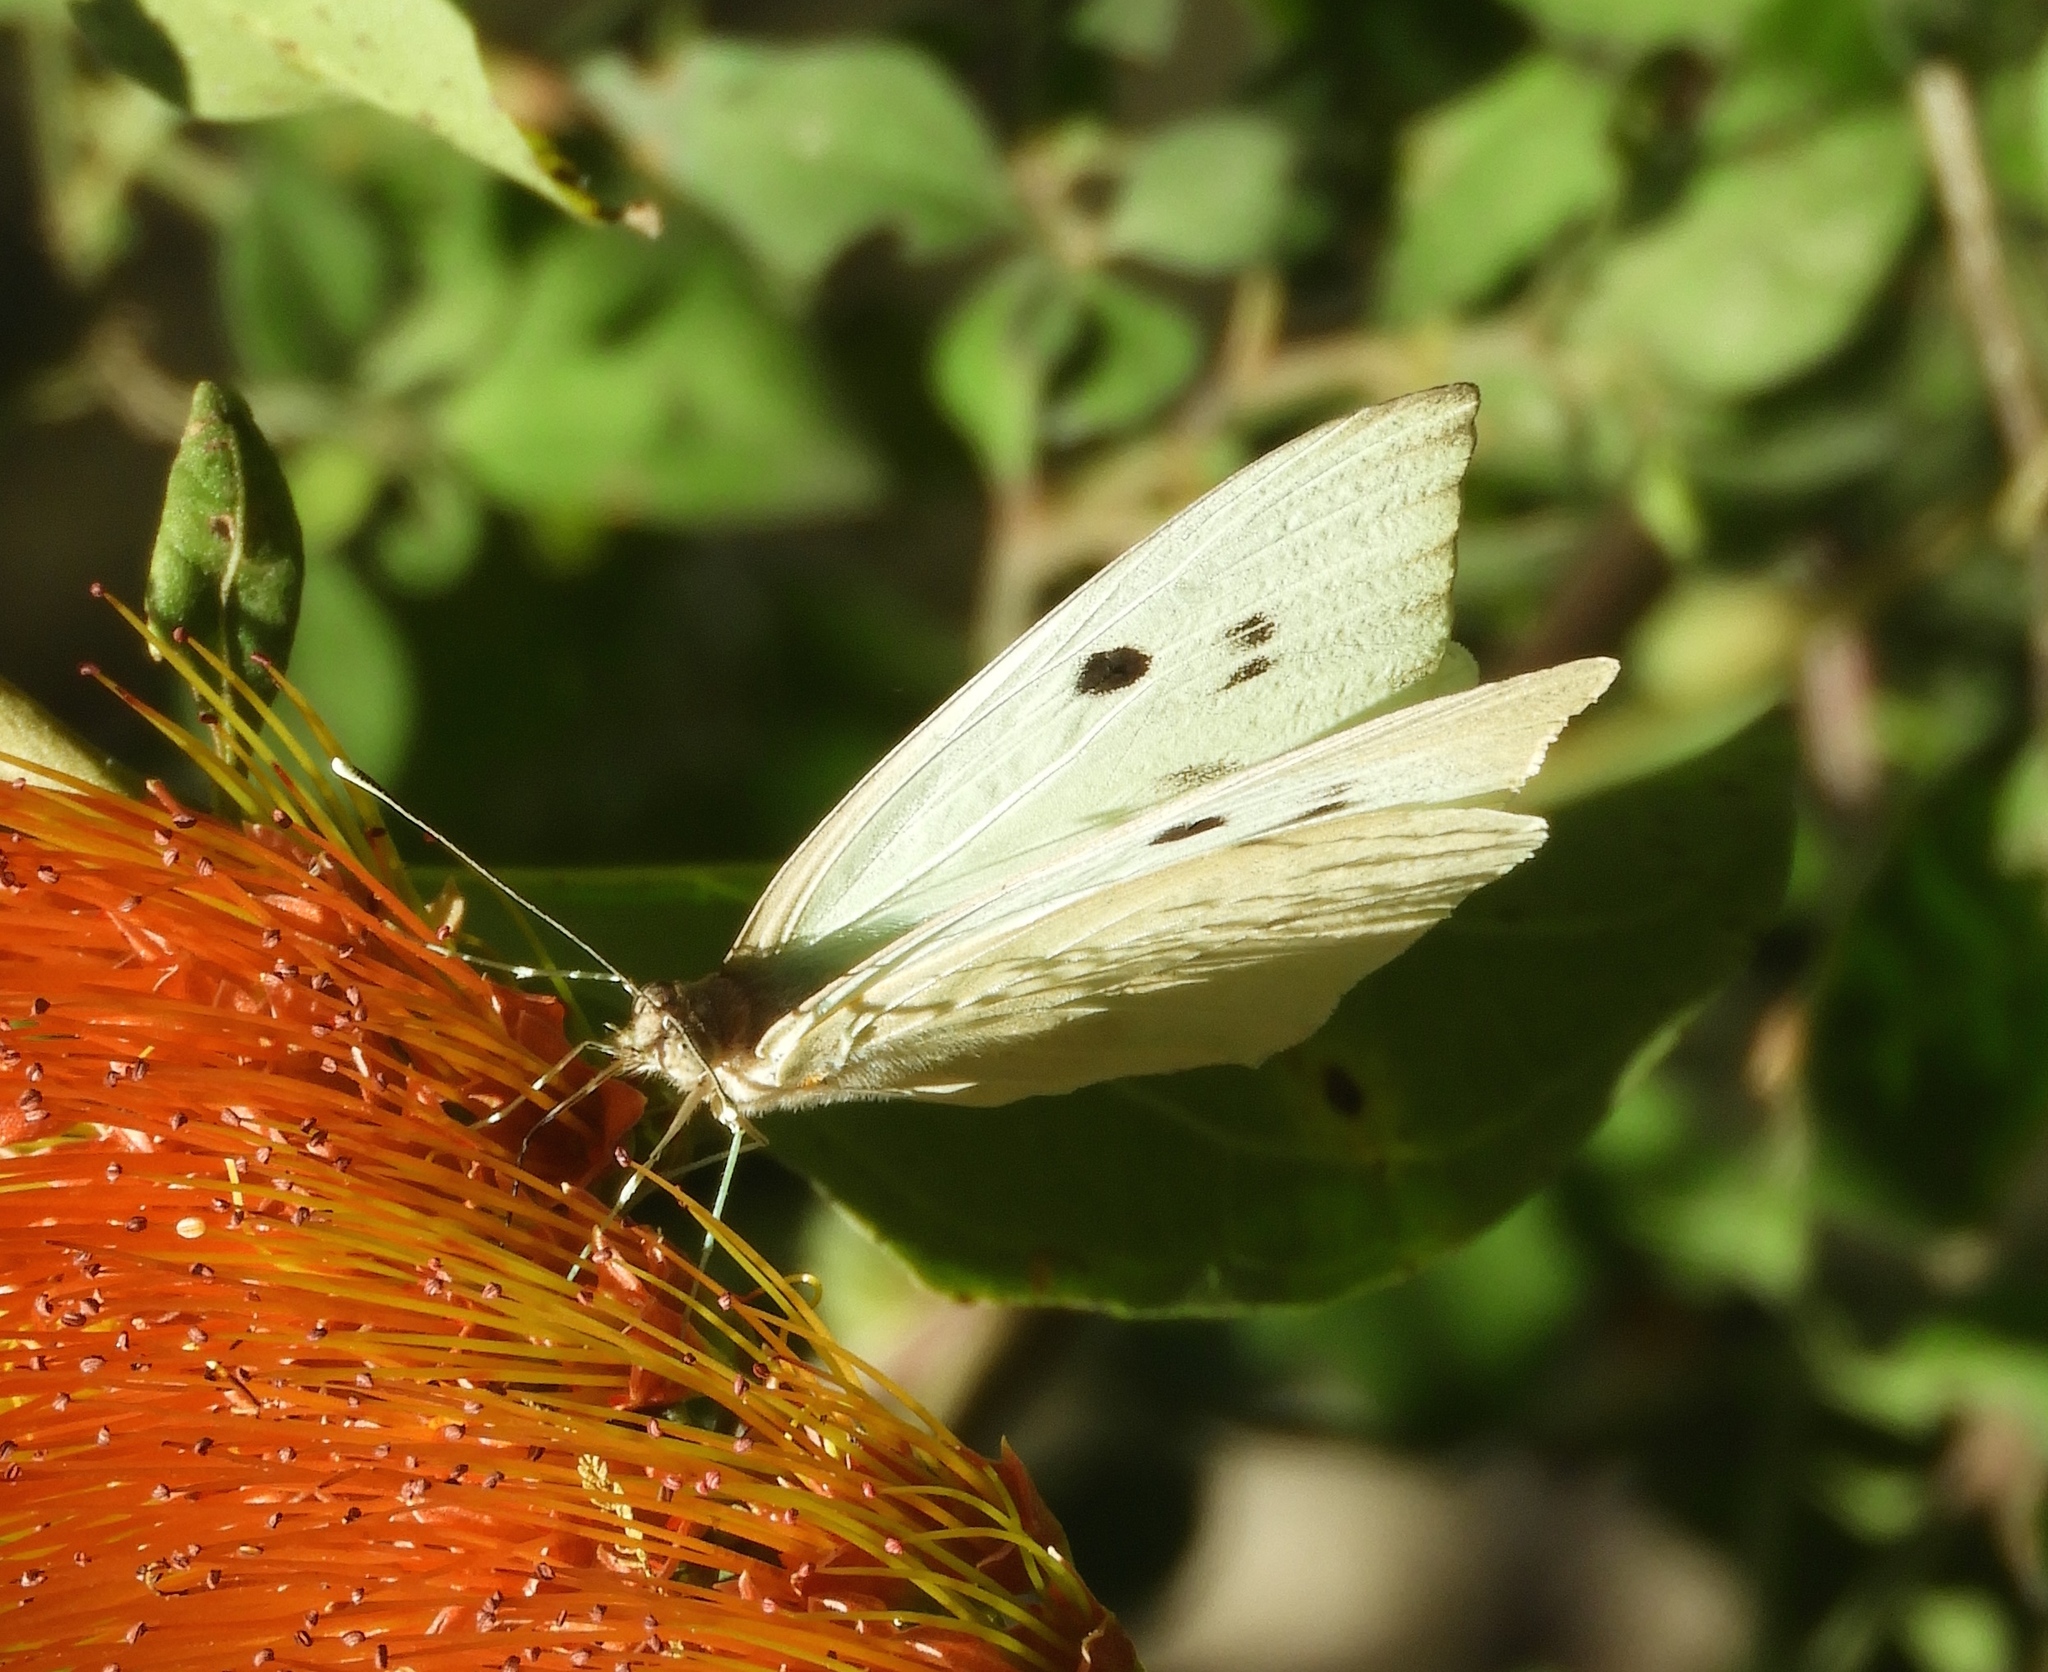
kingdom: Animalia
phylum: Arthropoda
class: Insecta
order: Lepidoptera
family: Pieridae
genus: Ganyra
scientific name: Ganyra josephina
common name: Giant white
